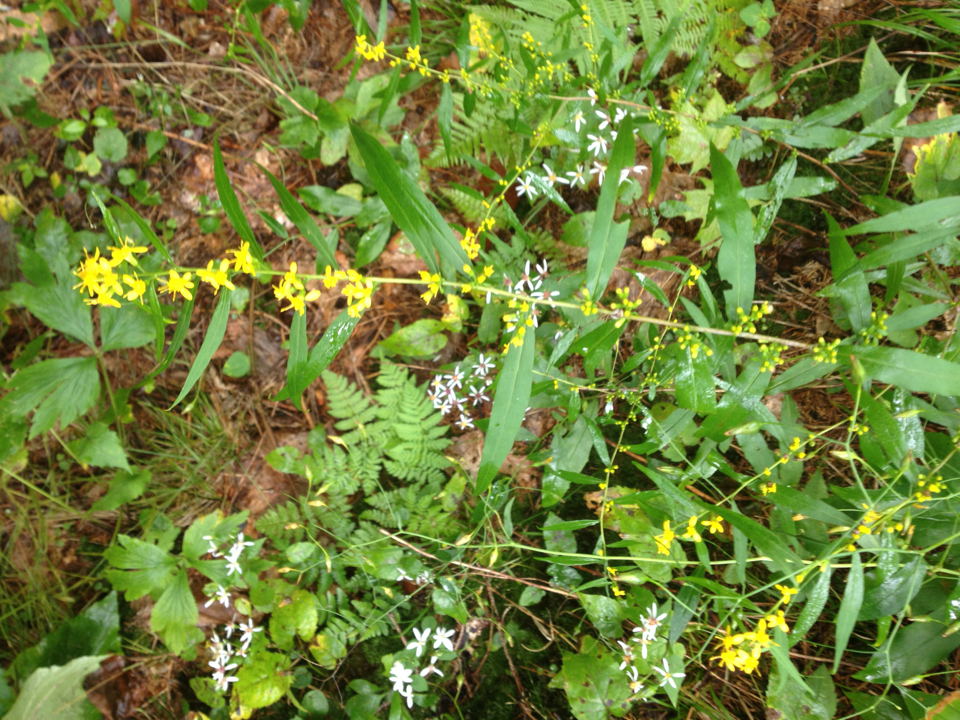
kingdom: Plantae
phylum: Tracheophyta
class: Magnoliopsida
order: Asterales
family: Asteraceae
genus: Solidago
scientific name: Solidago caesia
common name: Woodland goldenrod
